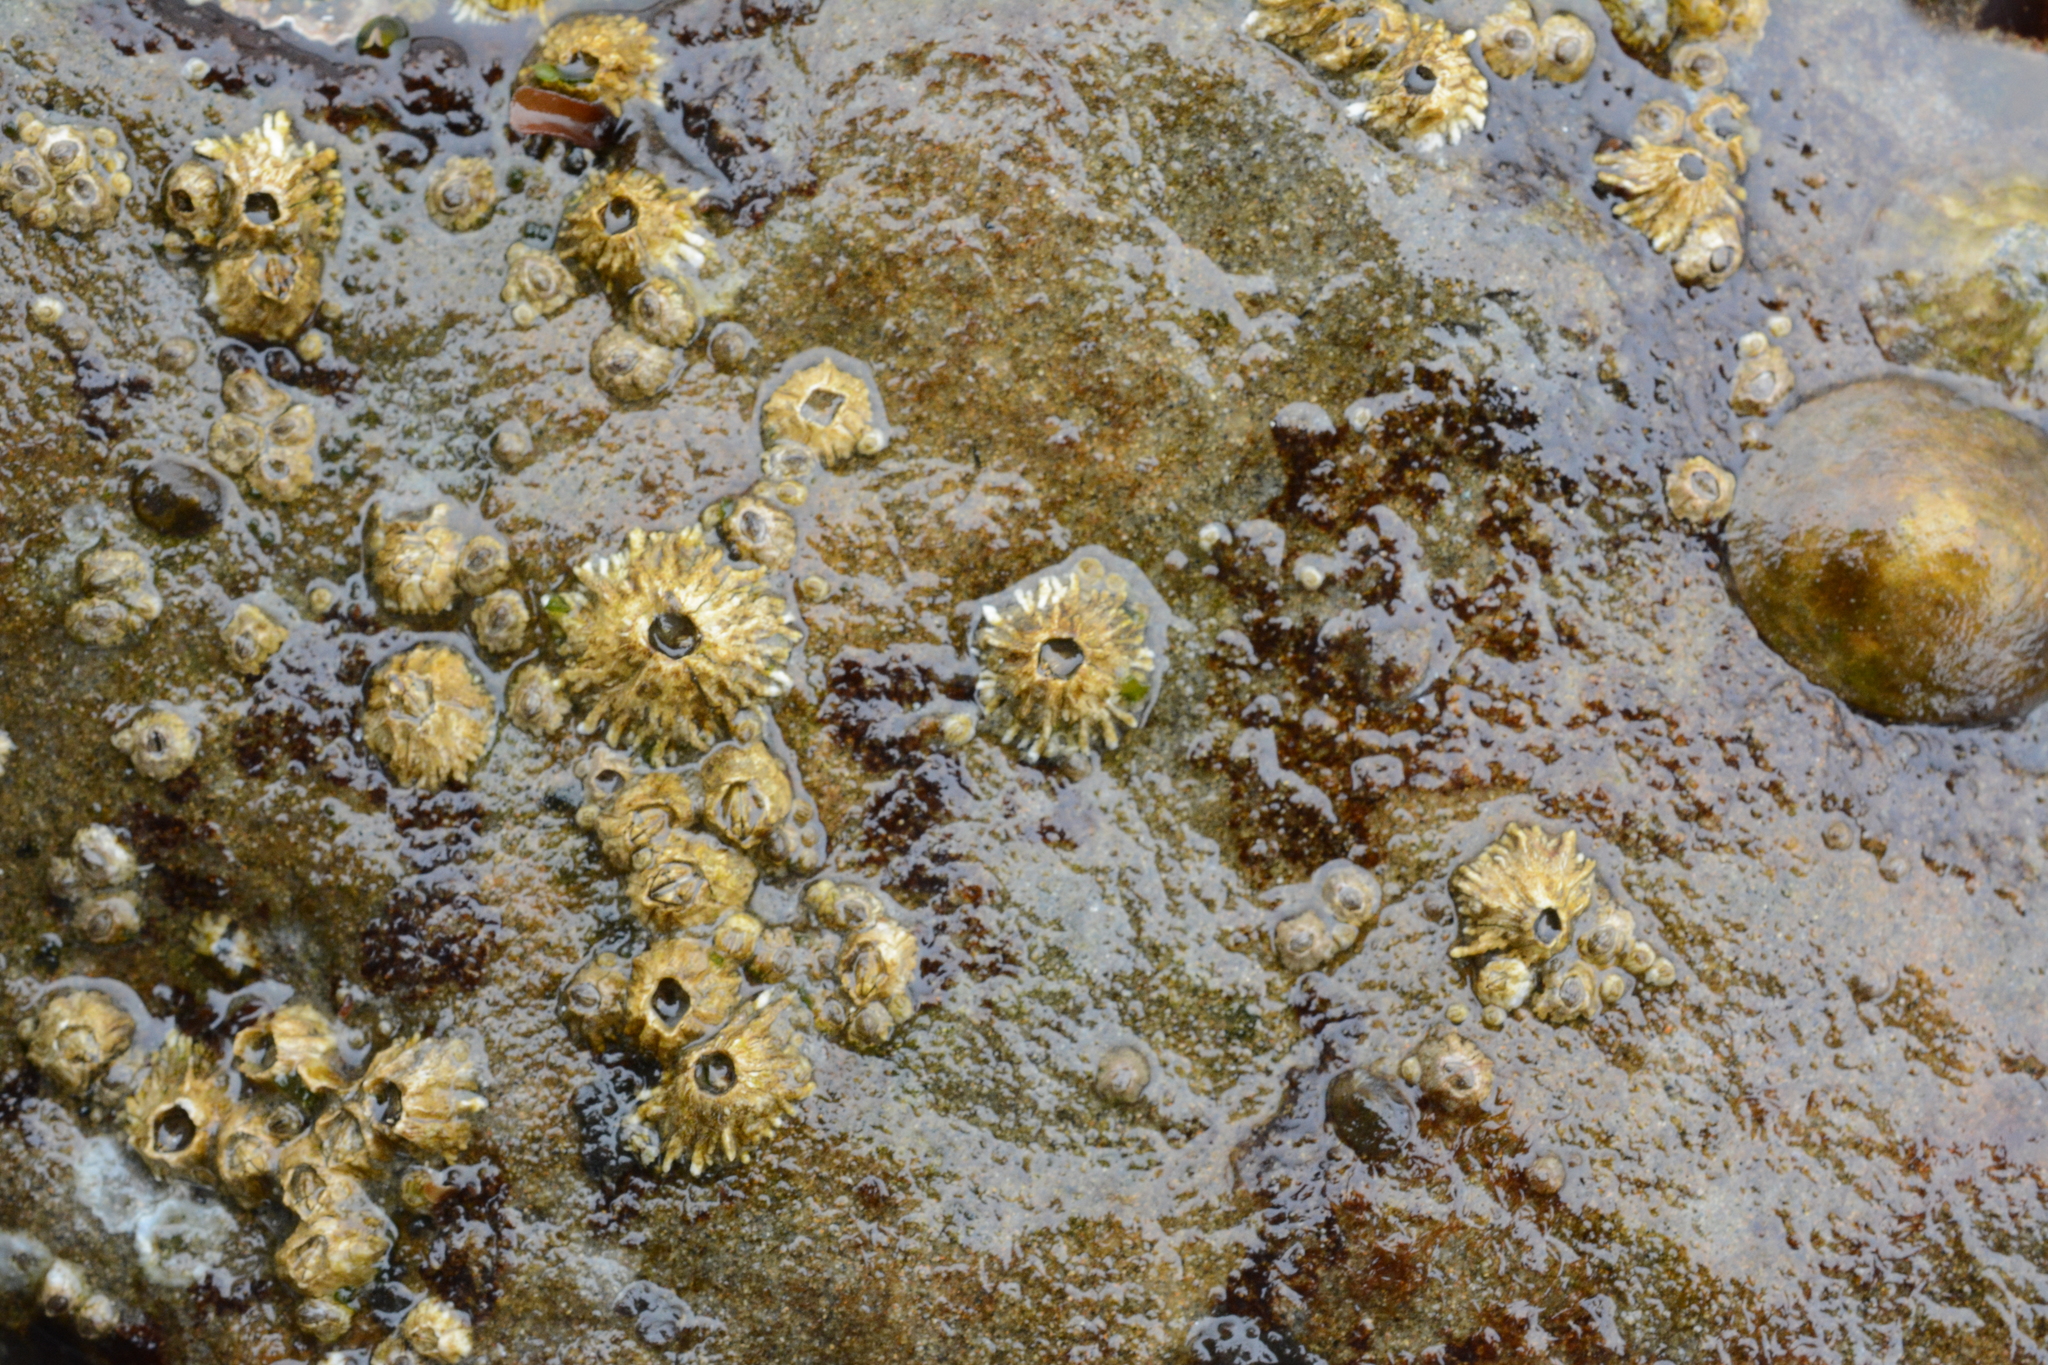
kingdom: Animalia
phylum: Arthropoda
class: Maxillopoda
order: Sessilia
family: Archaeobalanidae
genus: Semibalanus
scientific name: Semibalanus cariosus
